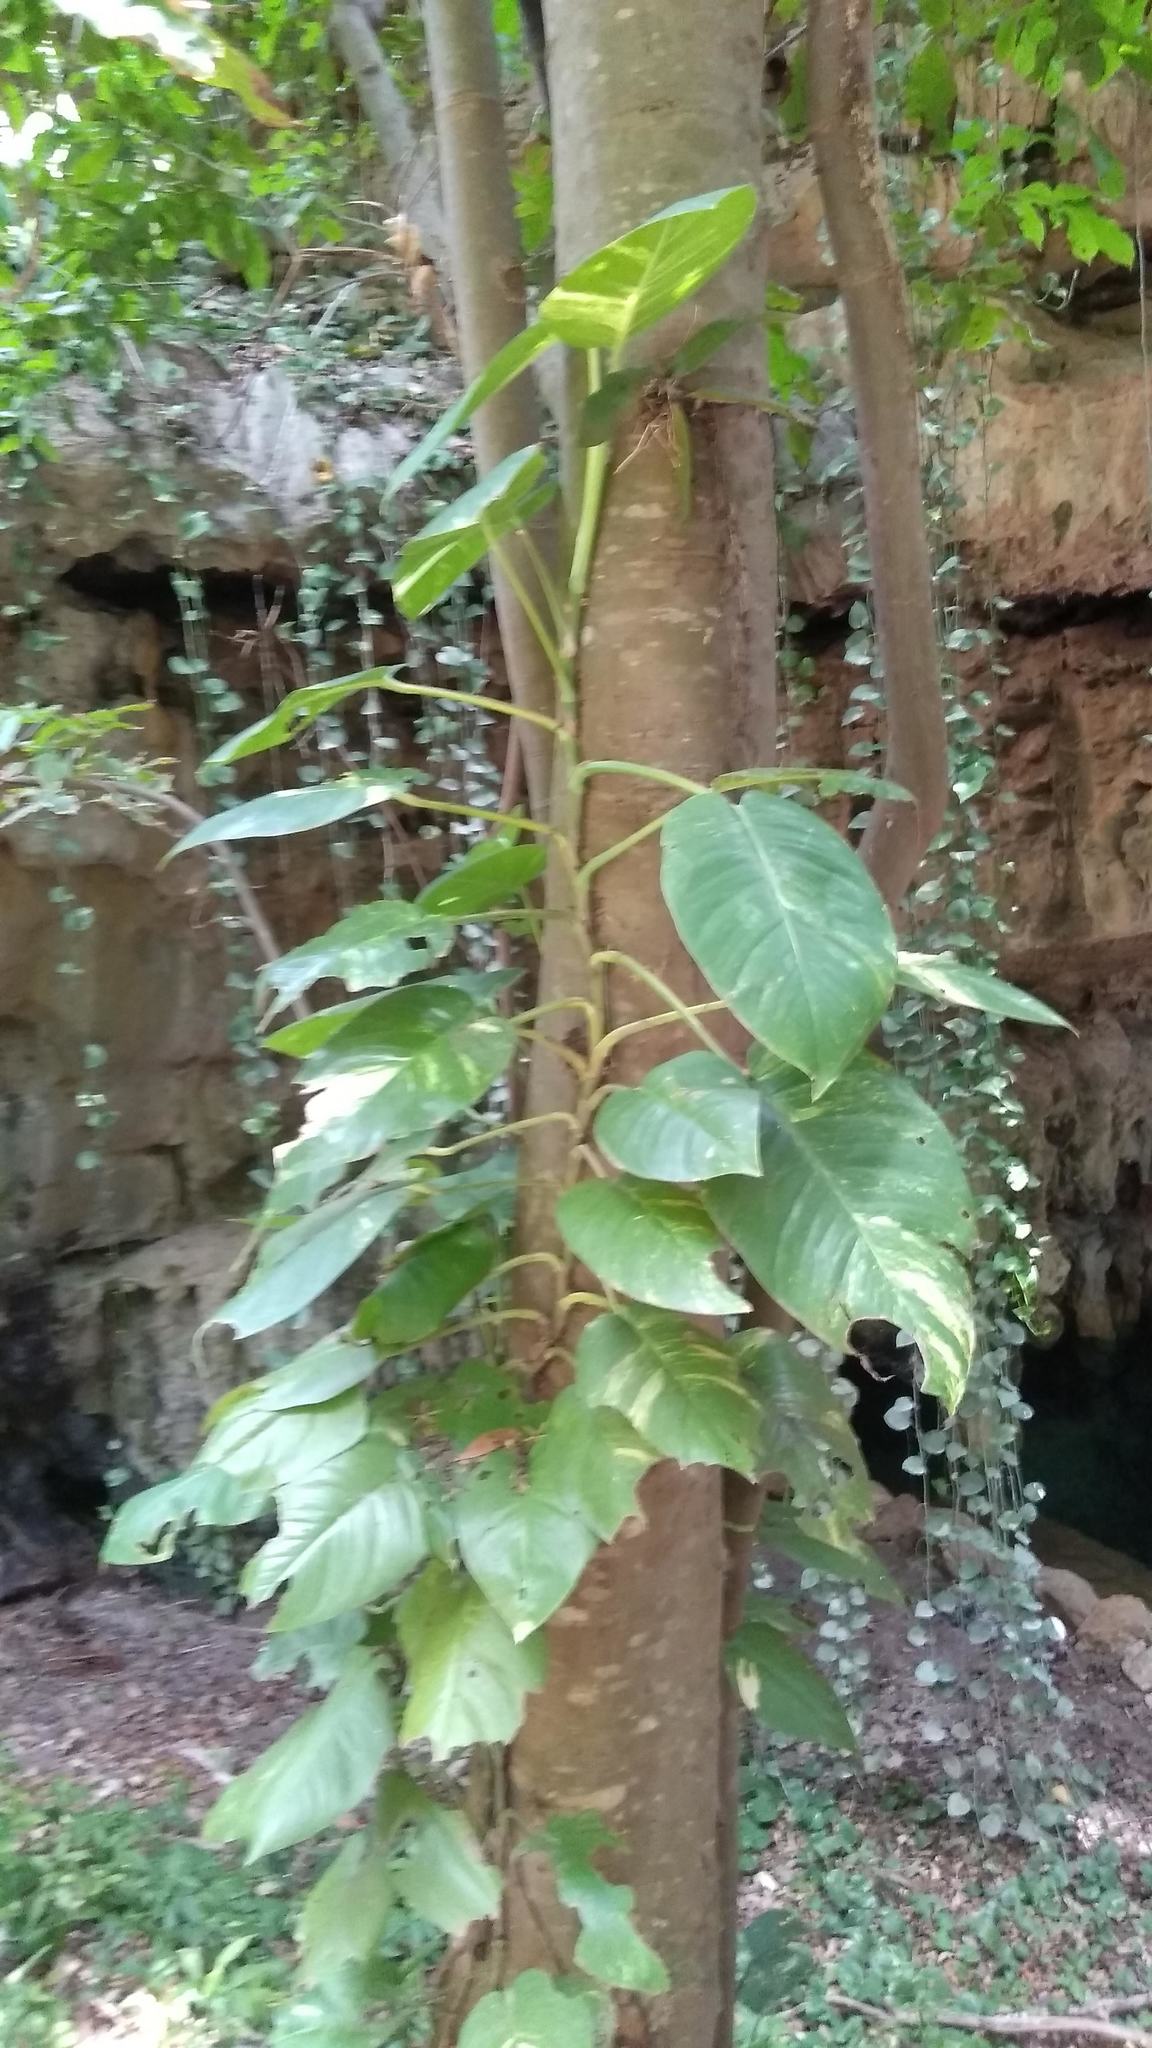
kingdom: Plantae
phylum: Tracheophyta
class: Liliopsida
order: Alismatales
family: Araceae
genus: Epipremnum
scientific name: Epipremnum aureum
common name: Golden hunter's-robe
